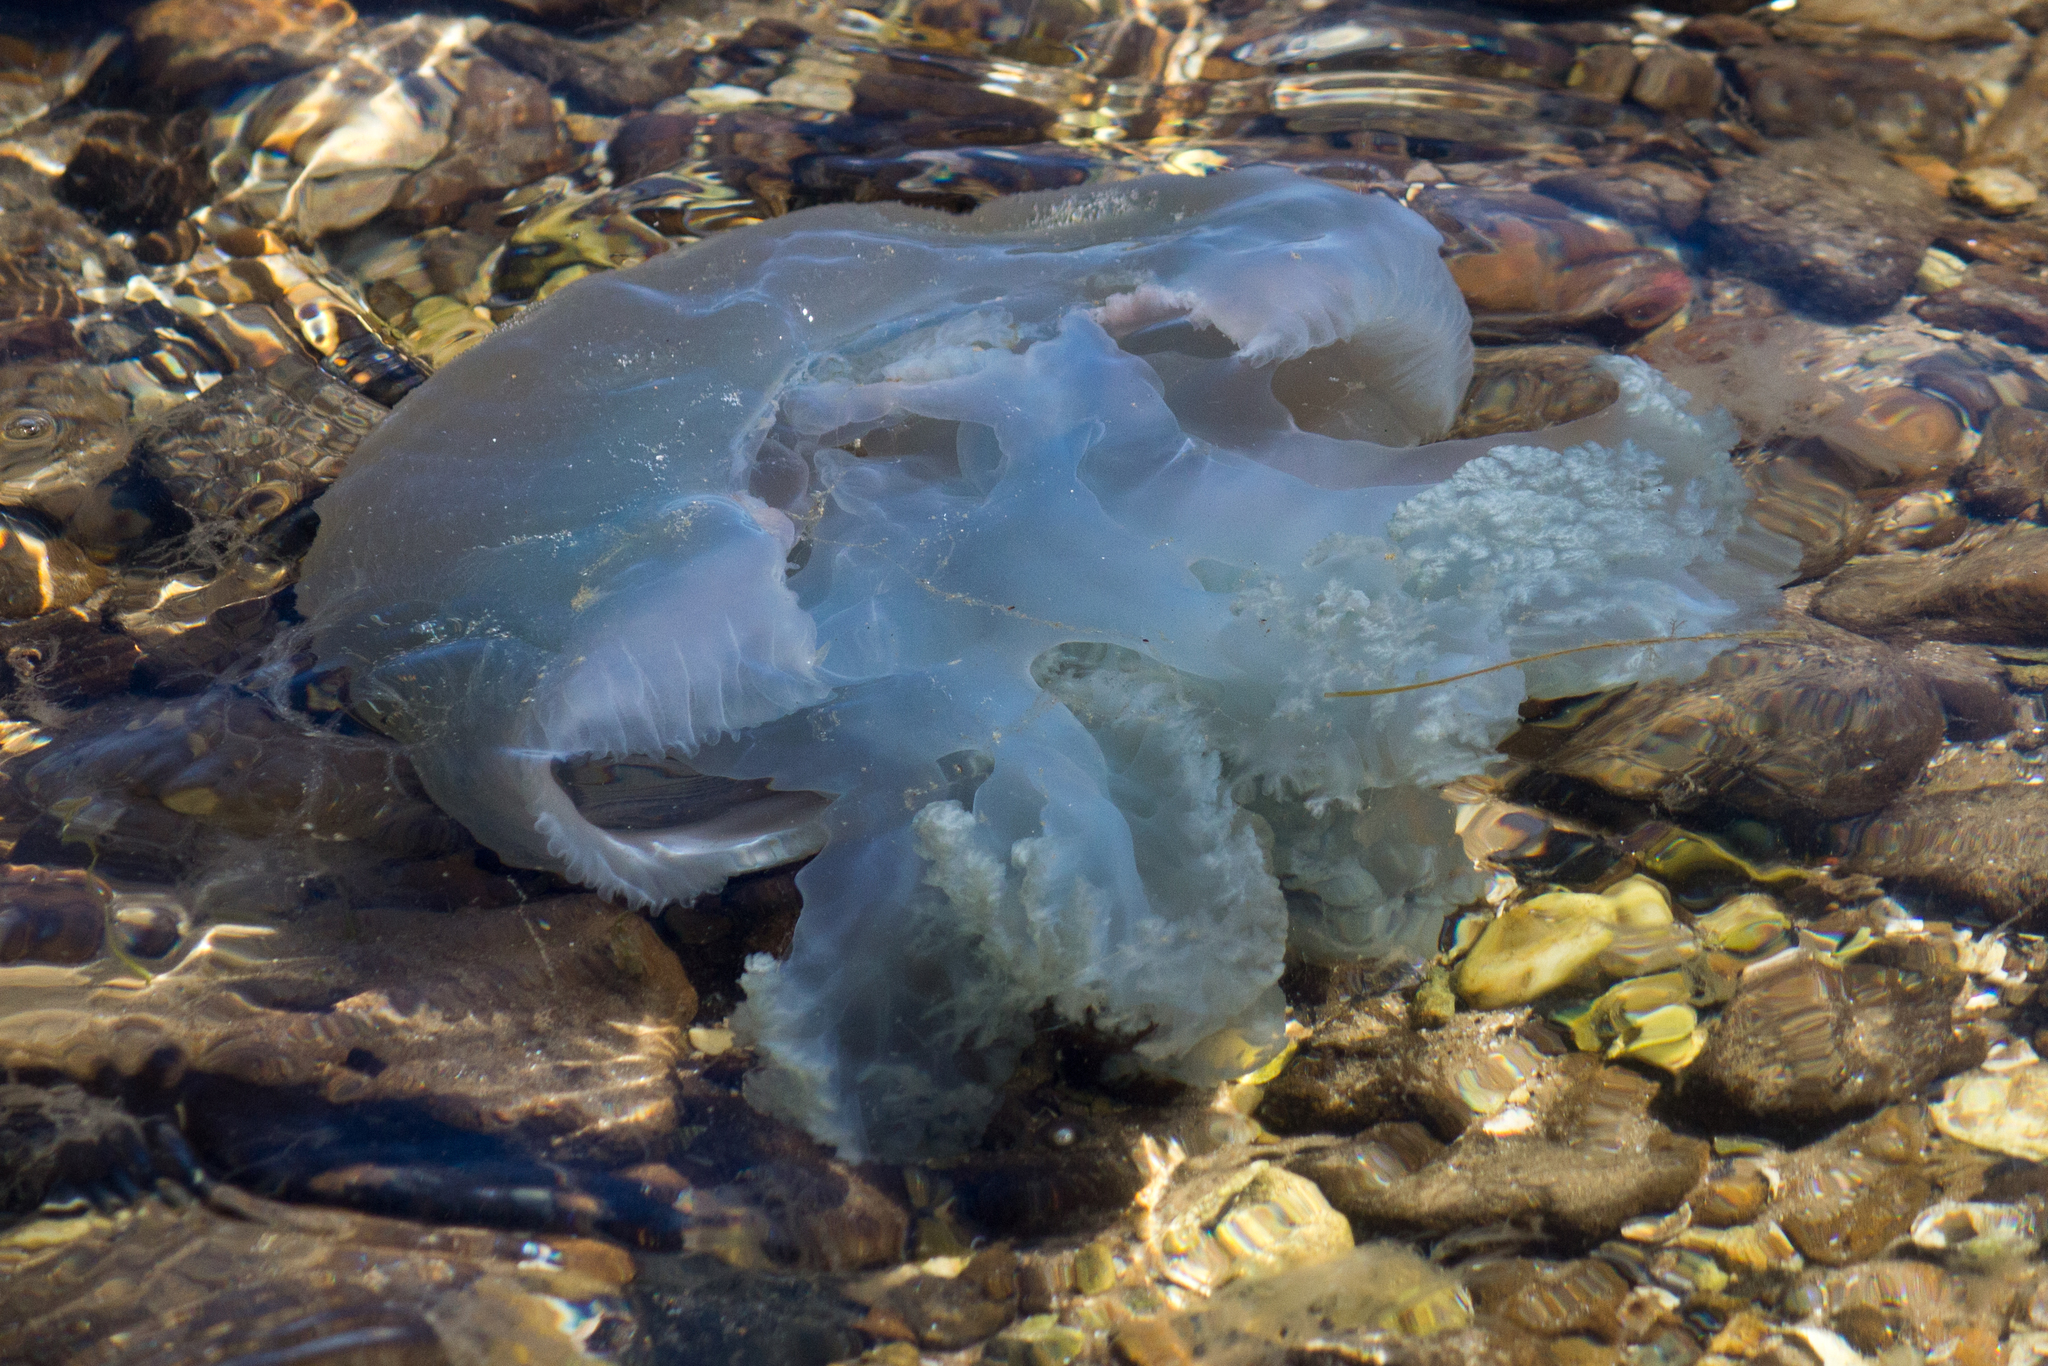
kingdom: Animalia
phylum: Cnidaria
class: Scyphozoa
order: Rhizostomeae
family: Catostylidae
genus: Catostylus
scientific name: Catostylus mosaicus
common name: Blue blubber
